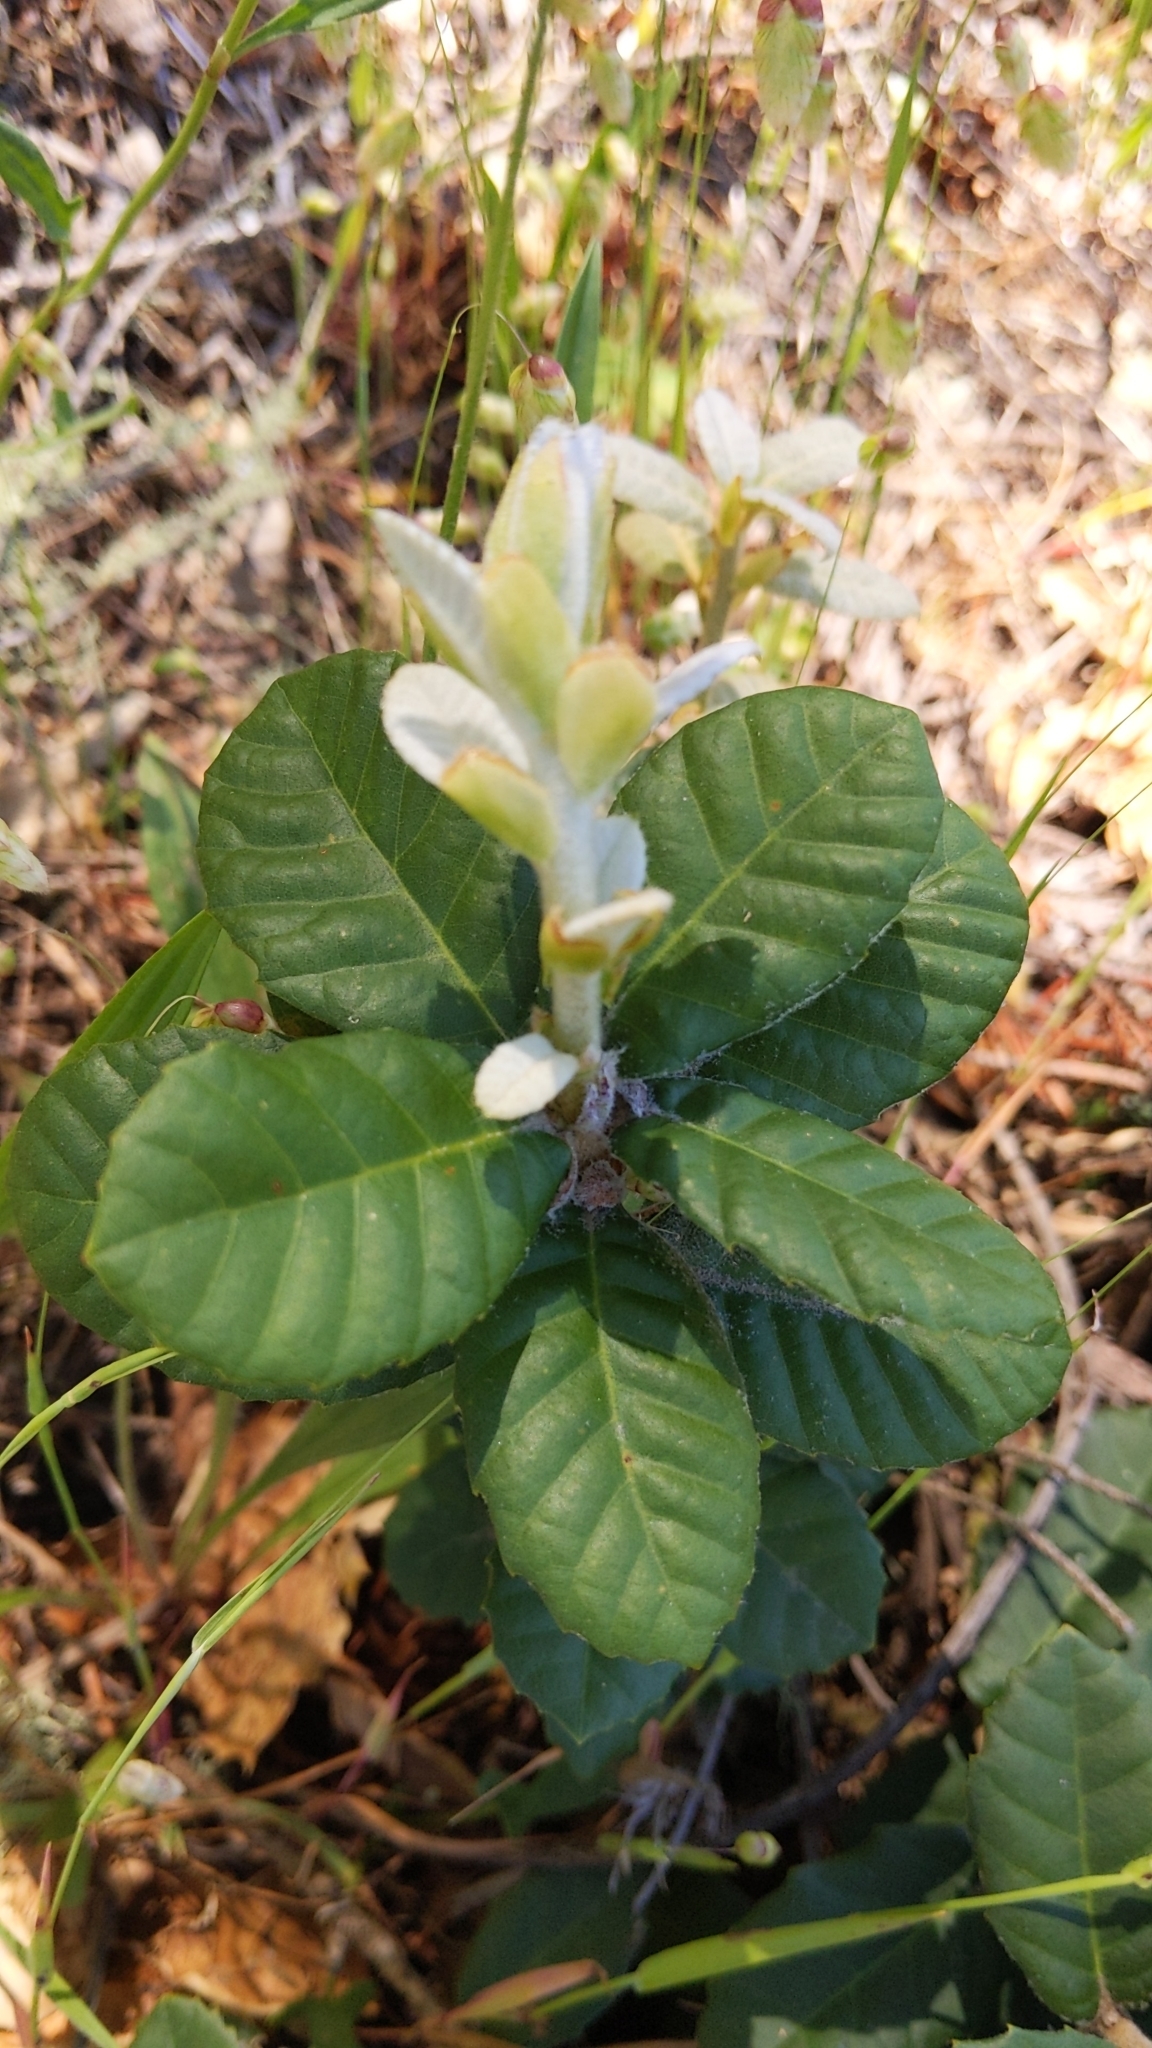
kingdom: Plantae
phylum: Tracheophyta
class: Magnoliopsida
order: Fagales
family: Fagaceae
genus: Notholithocarpus
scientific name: Notholithocarpus densiflorus
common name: Tan bark oak
